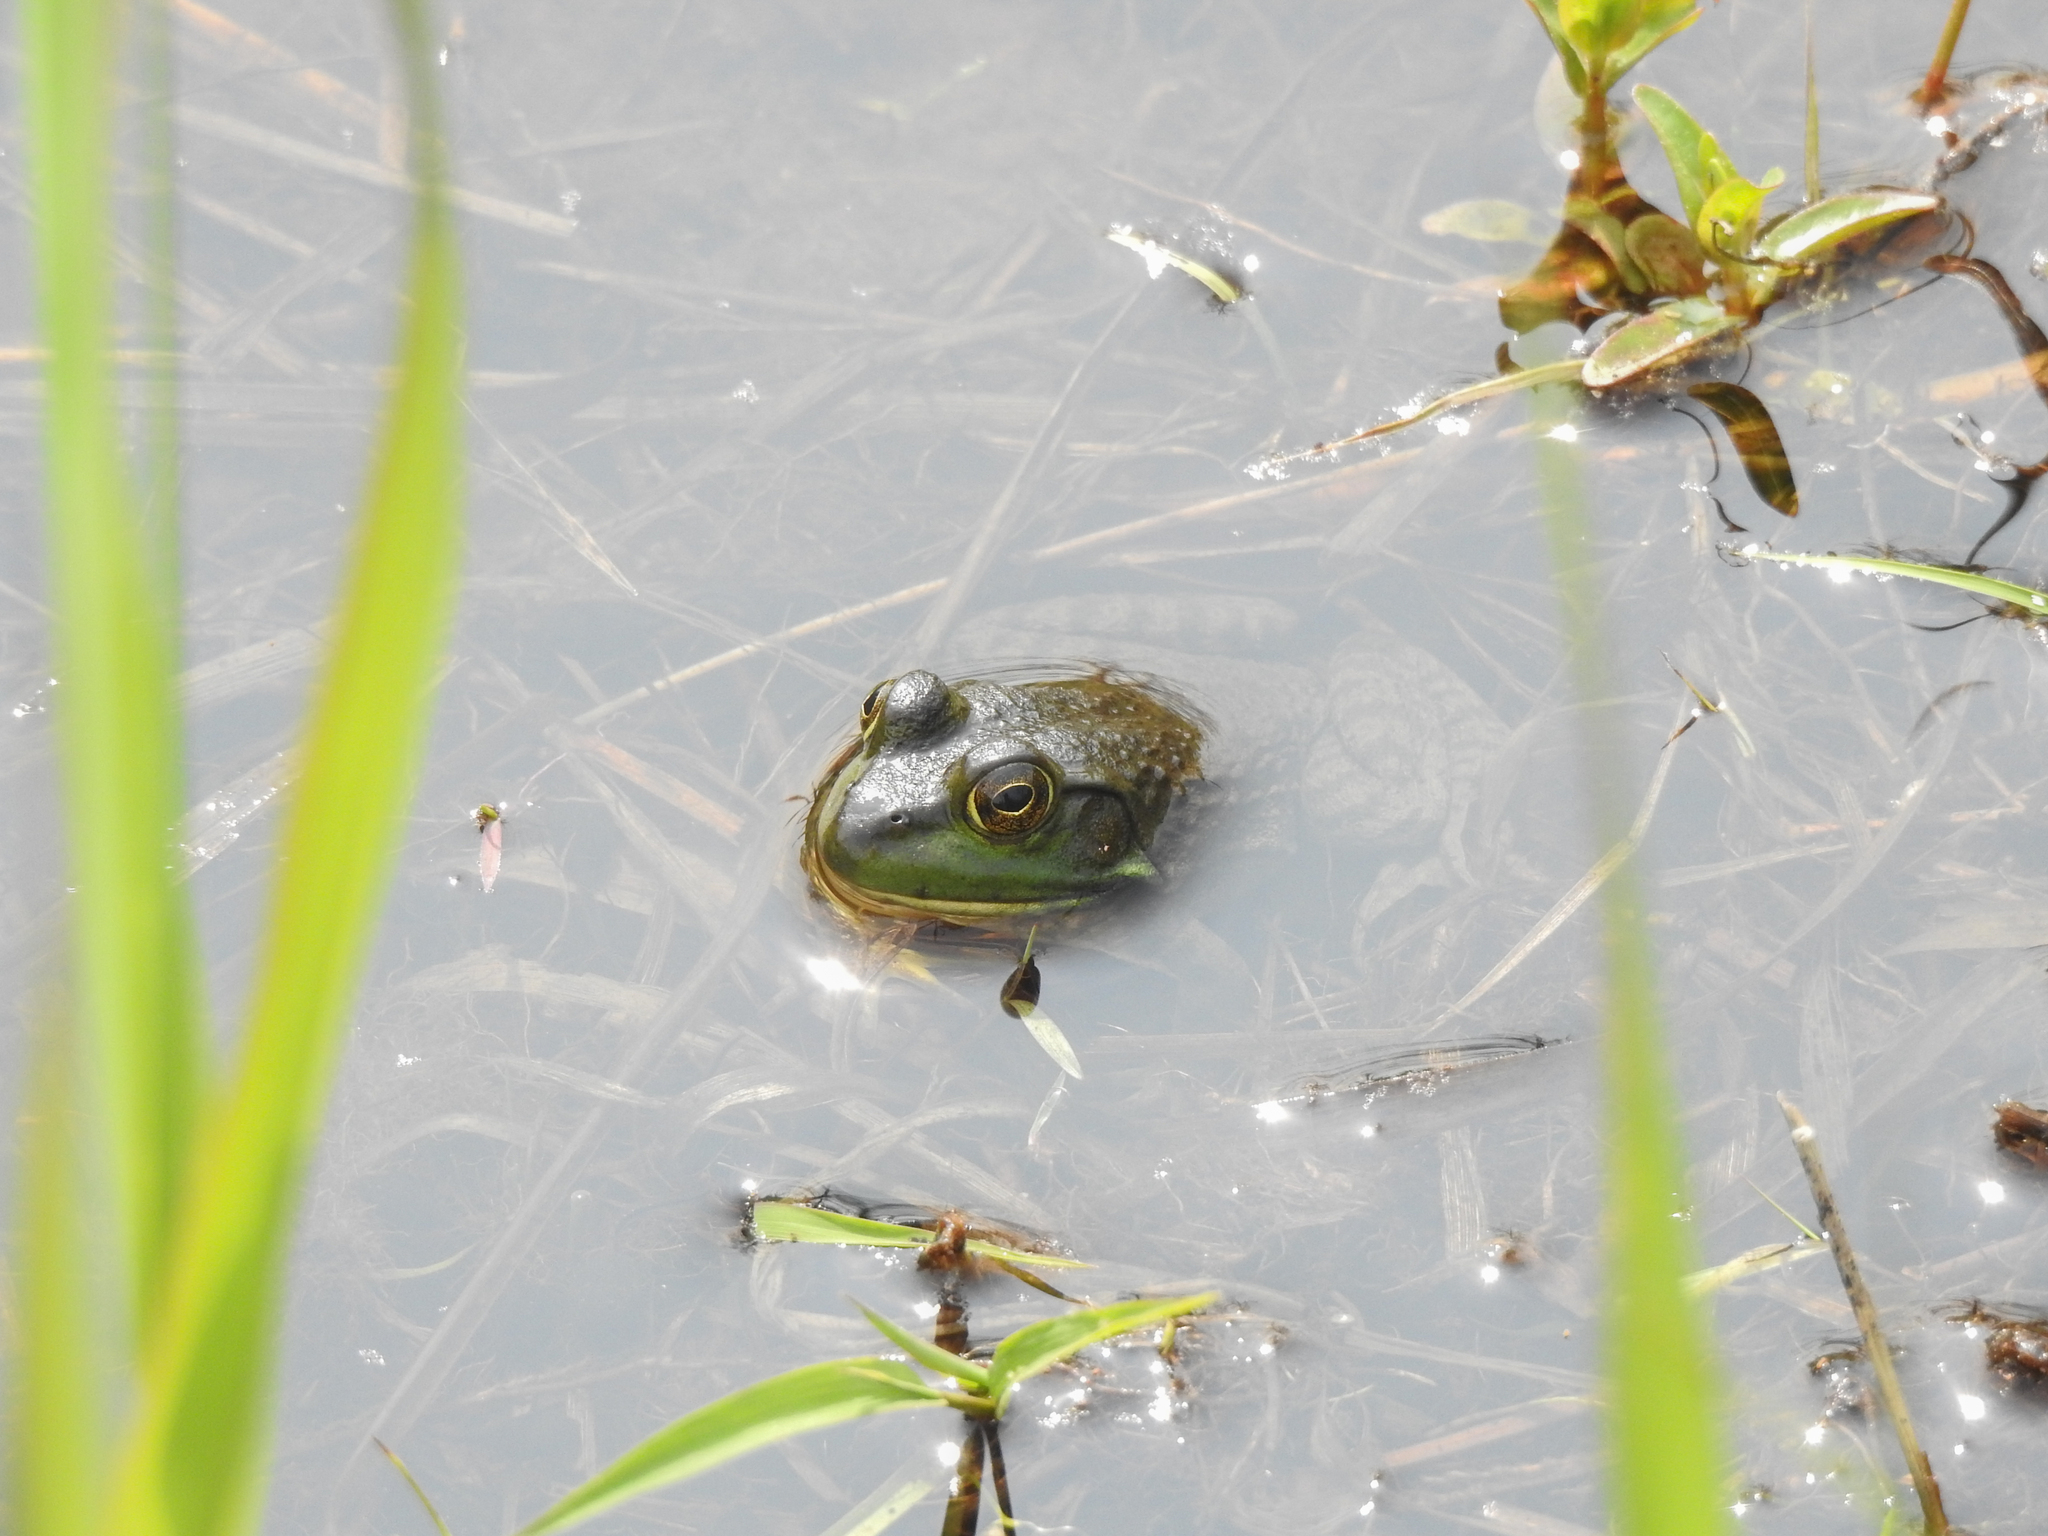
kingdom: Animalia
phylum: Chordata
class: Amphibia
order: Anura
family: Ranidae
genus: Lithobates
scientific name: Lithobates catesbeianus
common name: American bullfrog
